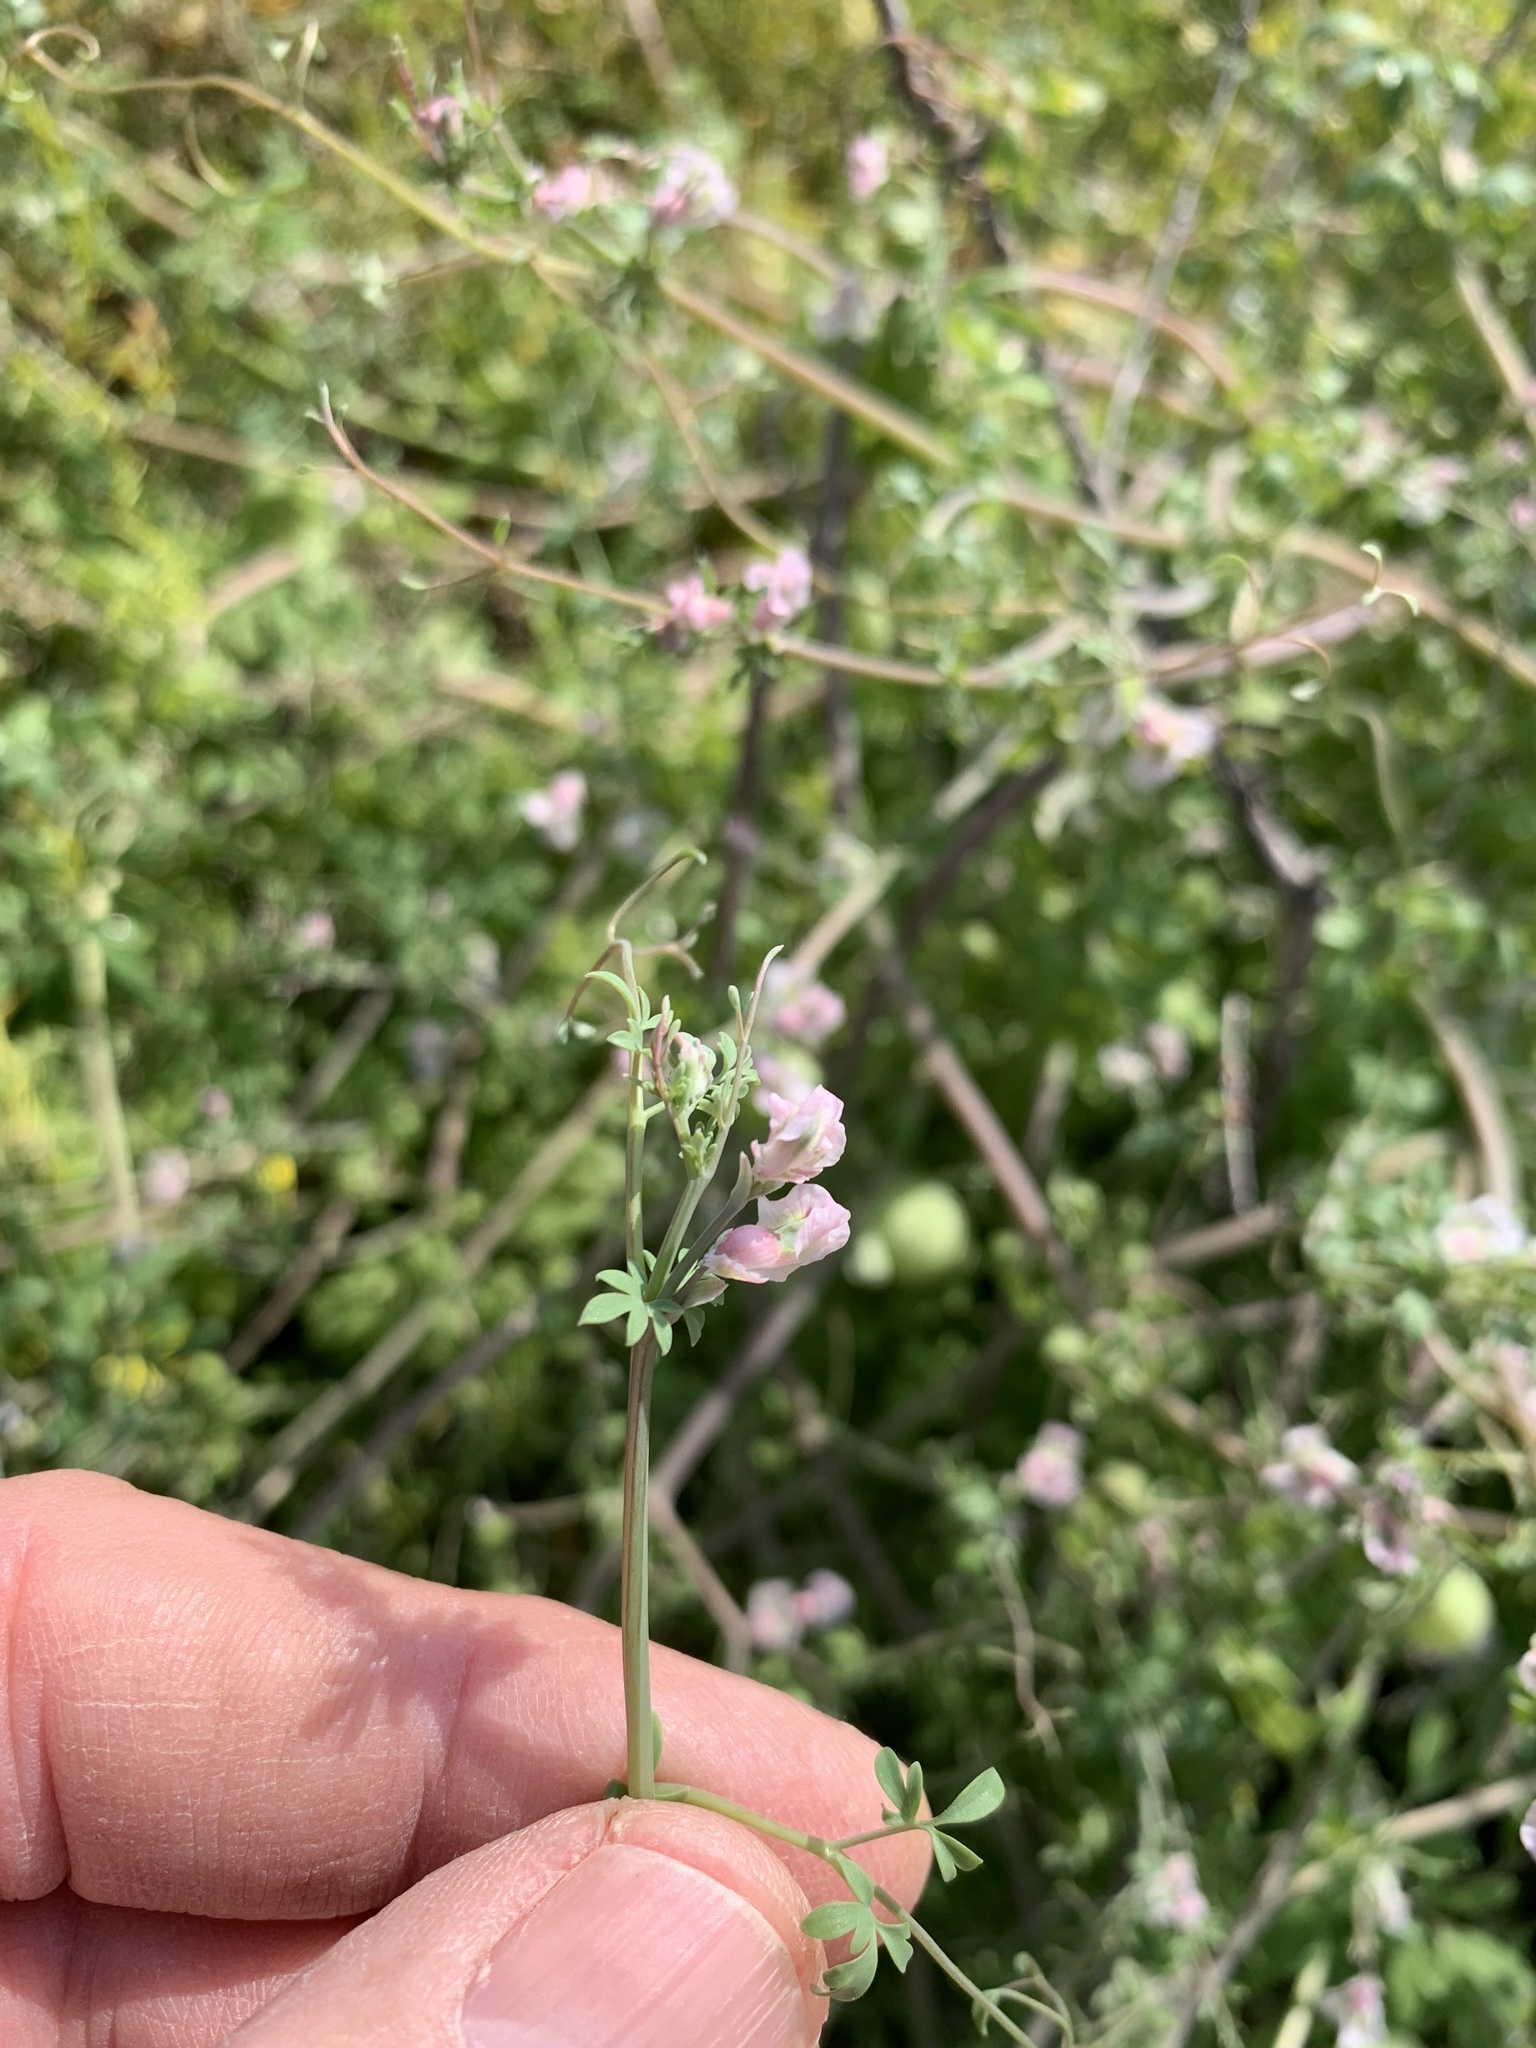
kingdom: Plantae
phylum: Tracheophyta
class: Magnoliopsida
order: Ranunculales
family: Papaveraceae
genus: Cysticapnos
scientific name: Cysticapnos vesicaria
